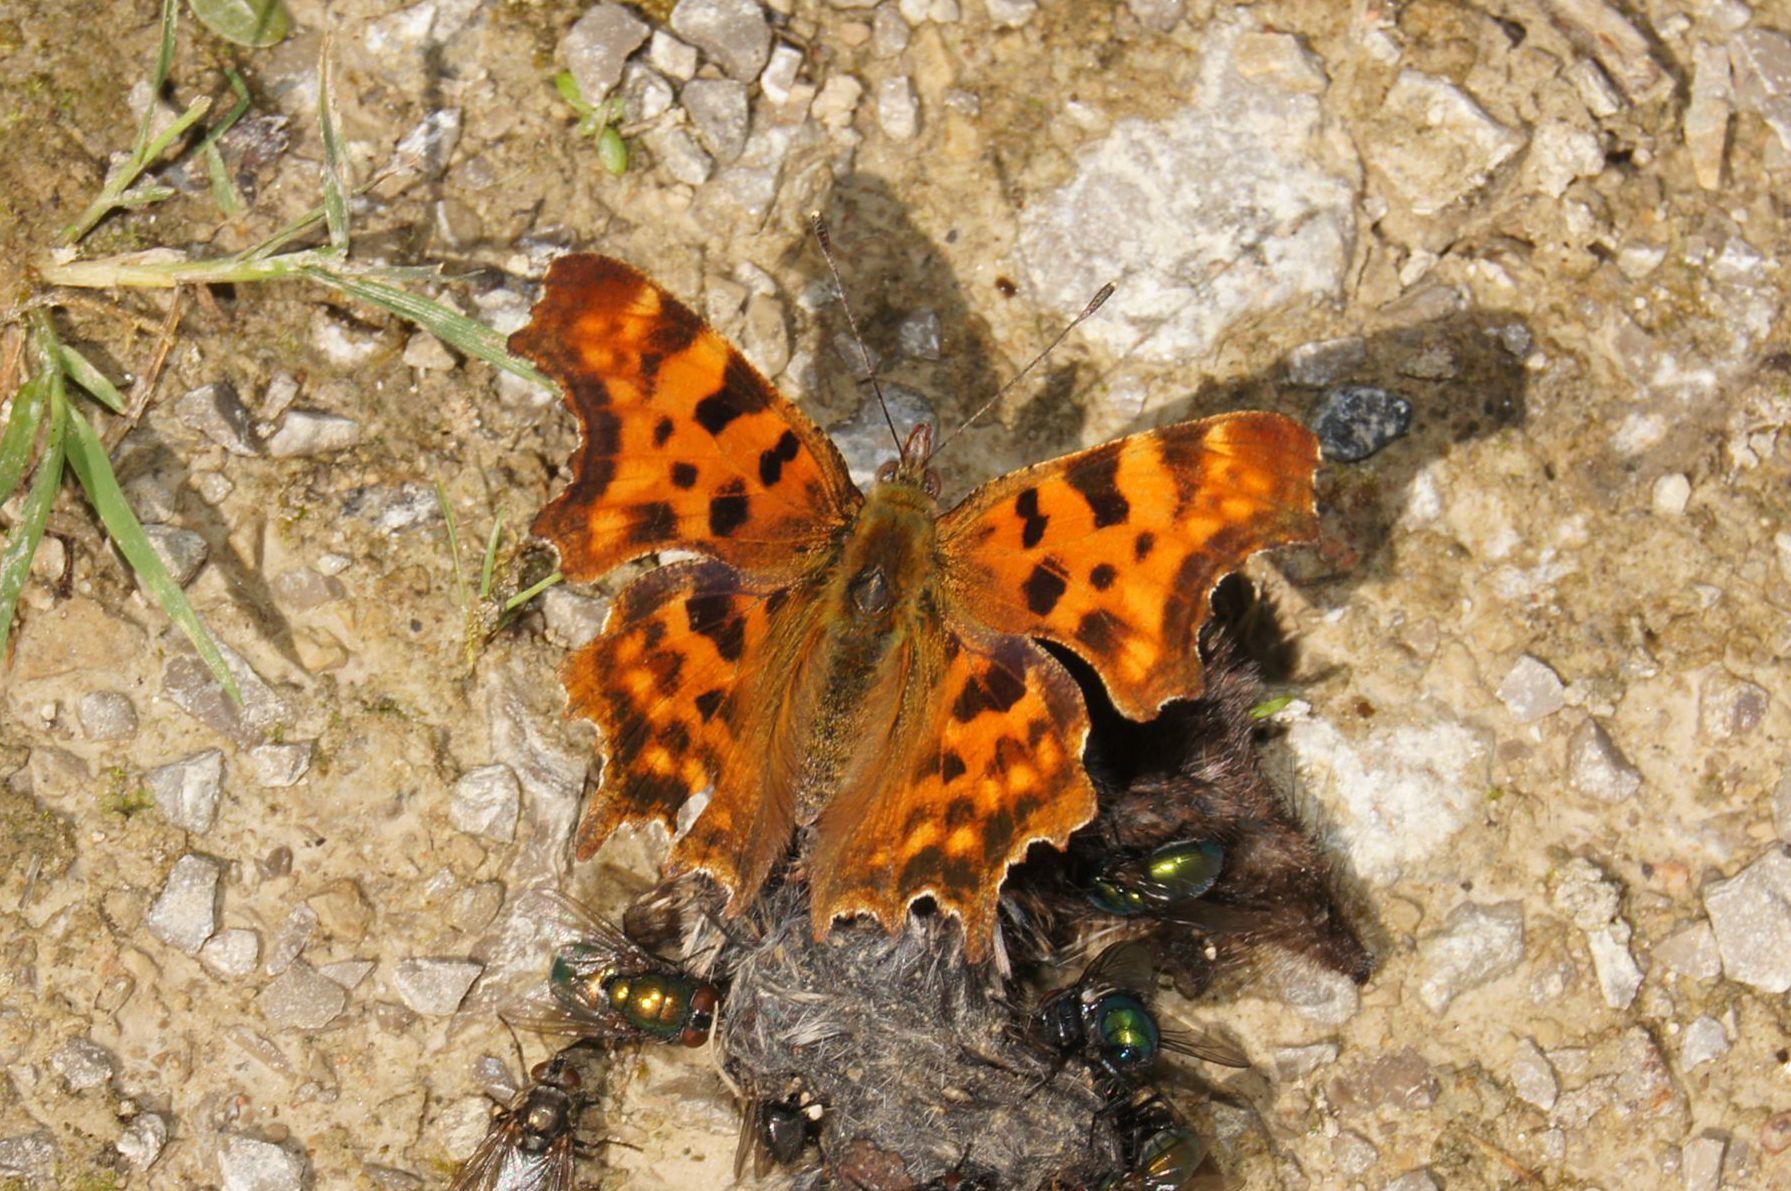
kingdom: Animalia
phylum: Arthropoda
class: Insecta
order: Lepidoptera
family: Nymphalidae
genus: Polygonia
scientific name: Polygonia c-album
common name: Comma
